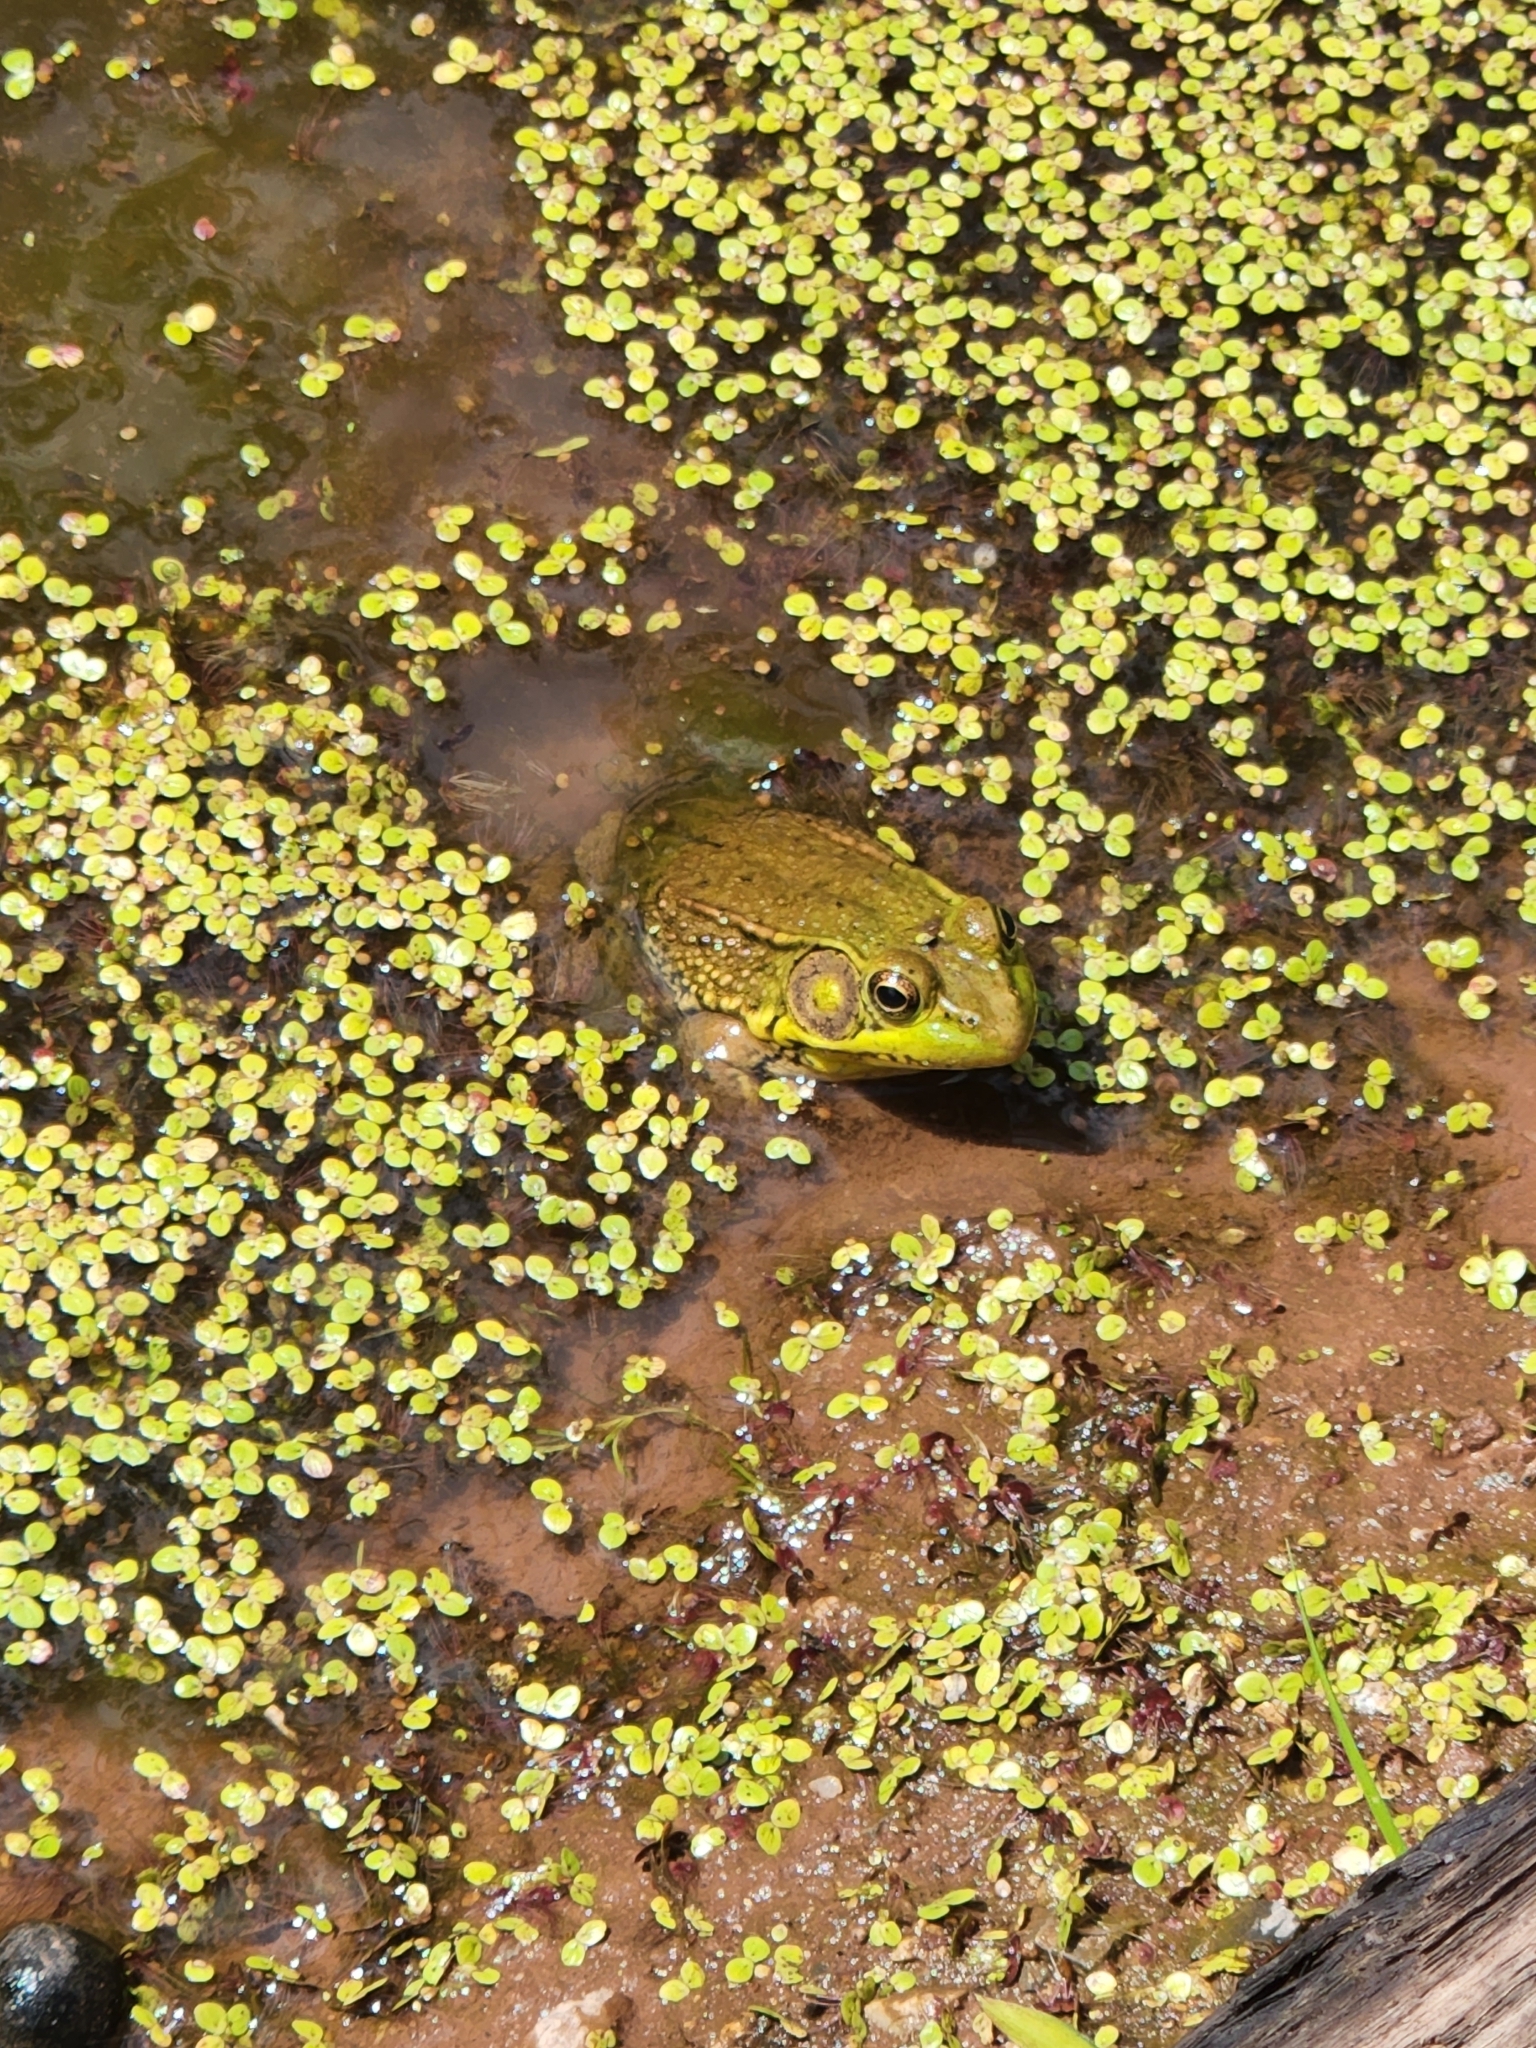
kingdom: Animalia
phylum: Chordata
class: Amphibia
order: Anura
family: Ranidae
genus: Lithobates
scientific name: Lithobates clamitans
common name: Green frog
